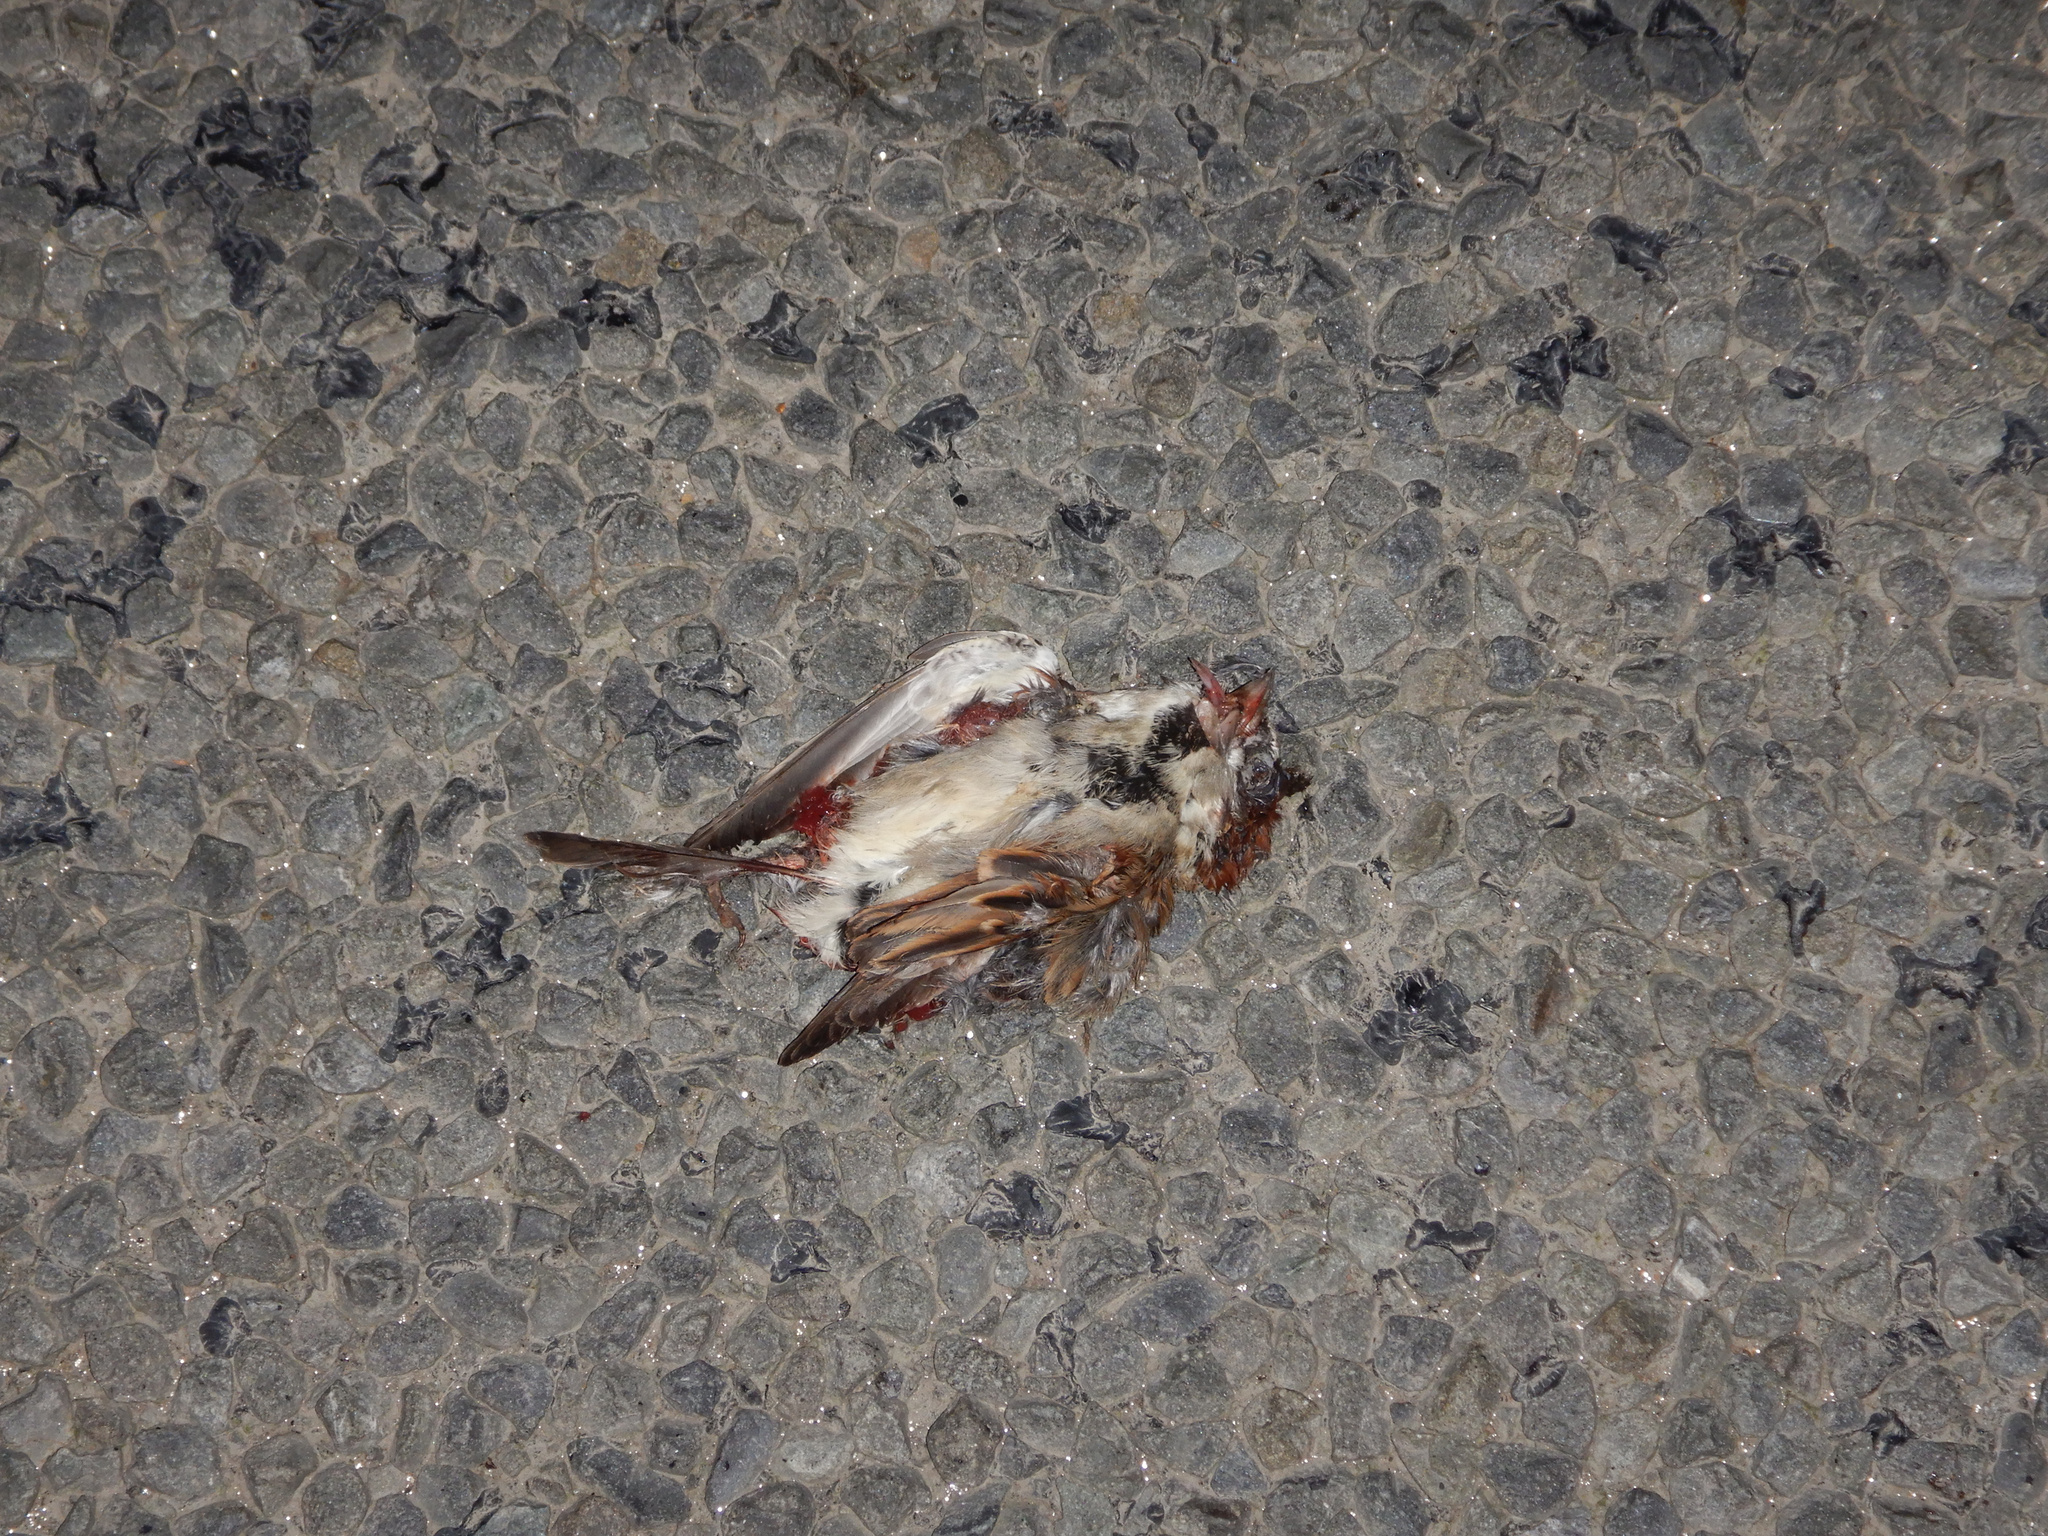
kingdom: Animalia
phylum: Chordata
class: Aves
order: Passeriformes
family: Passeridae
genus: Passer
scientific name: Passer domesticus
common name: House sparrow
